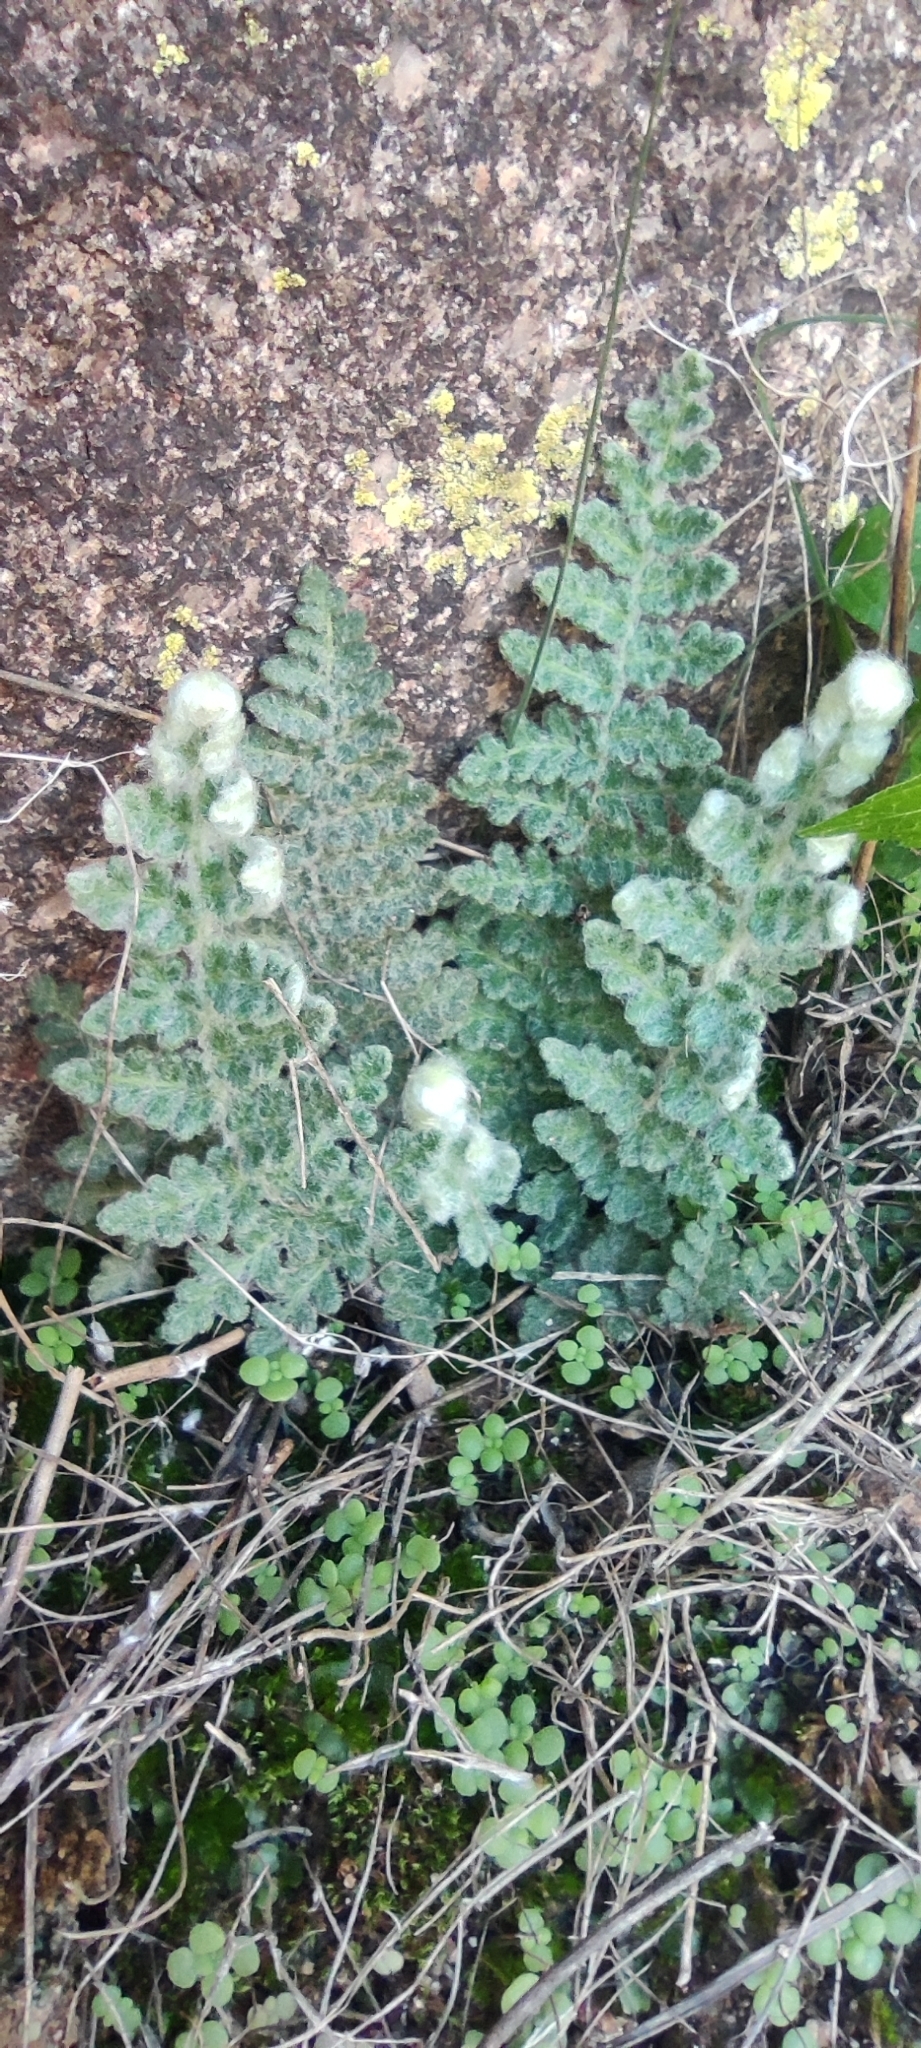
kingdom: Plantae
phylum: Tracheophyta
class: Polypodiopsida
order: Polypodiales
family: Pteridaceae
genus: Cosentinia
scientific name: Cosentinia vellea
